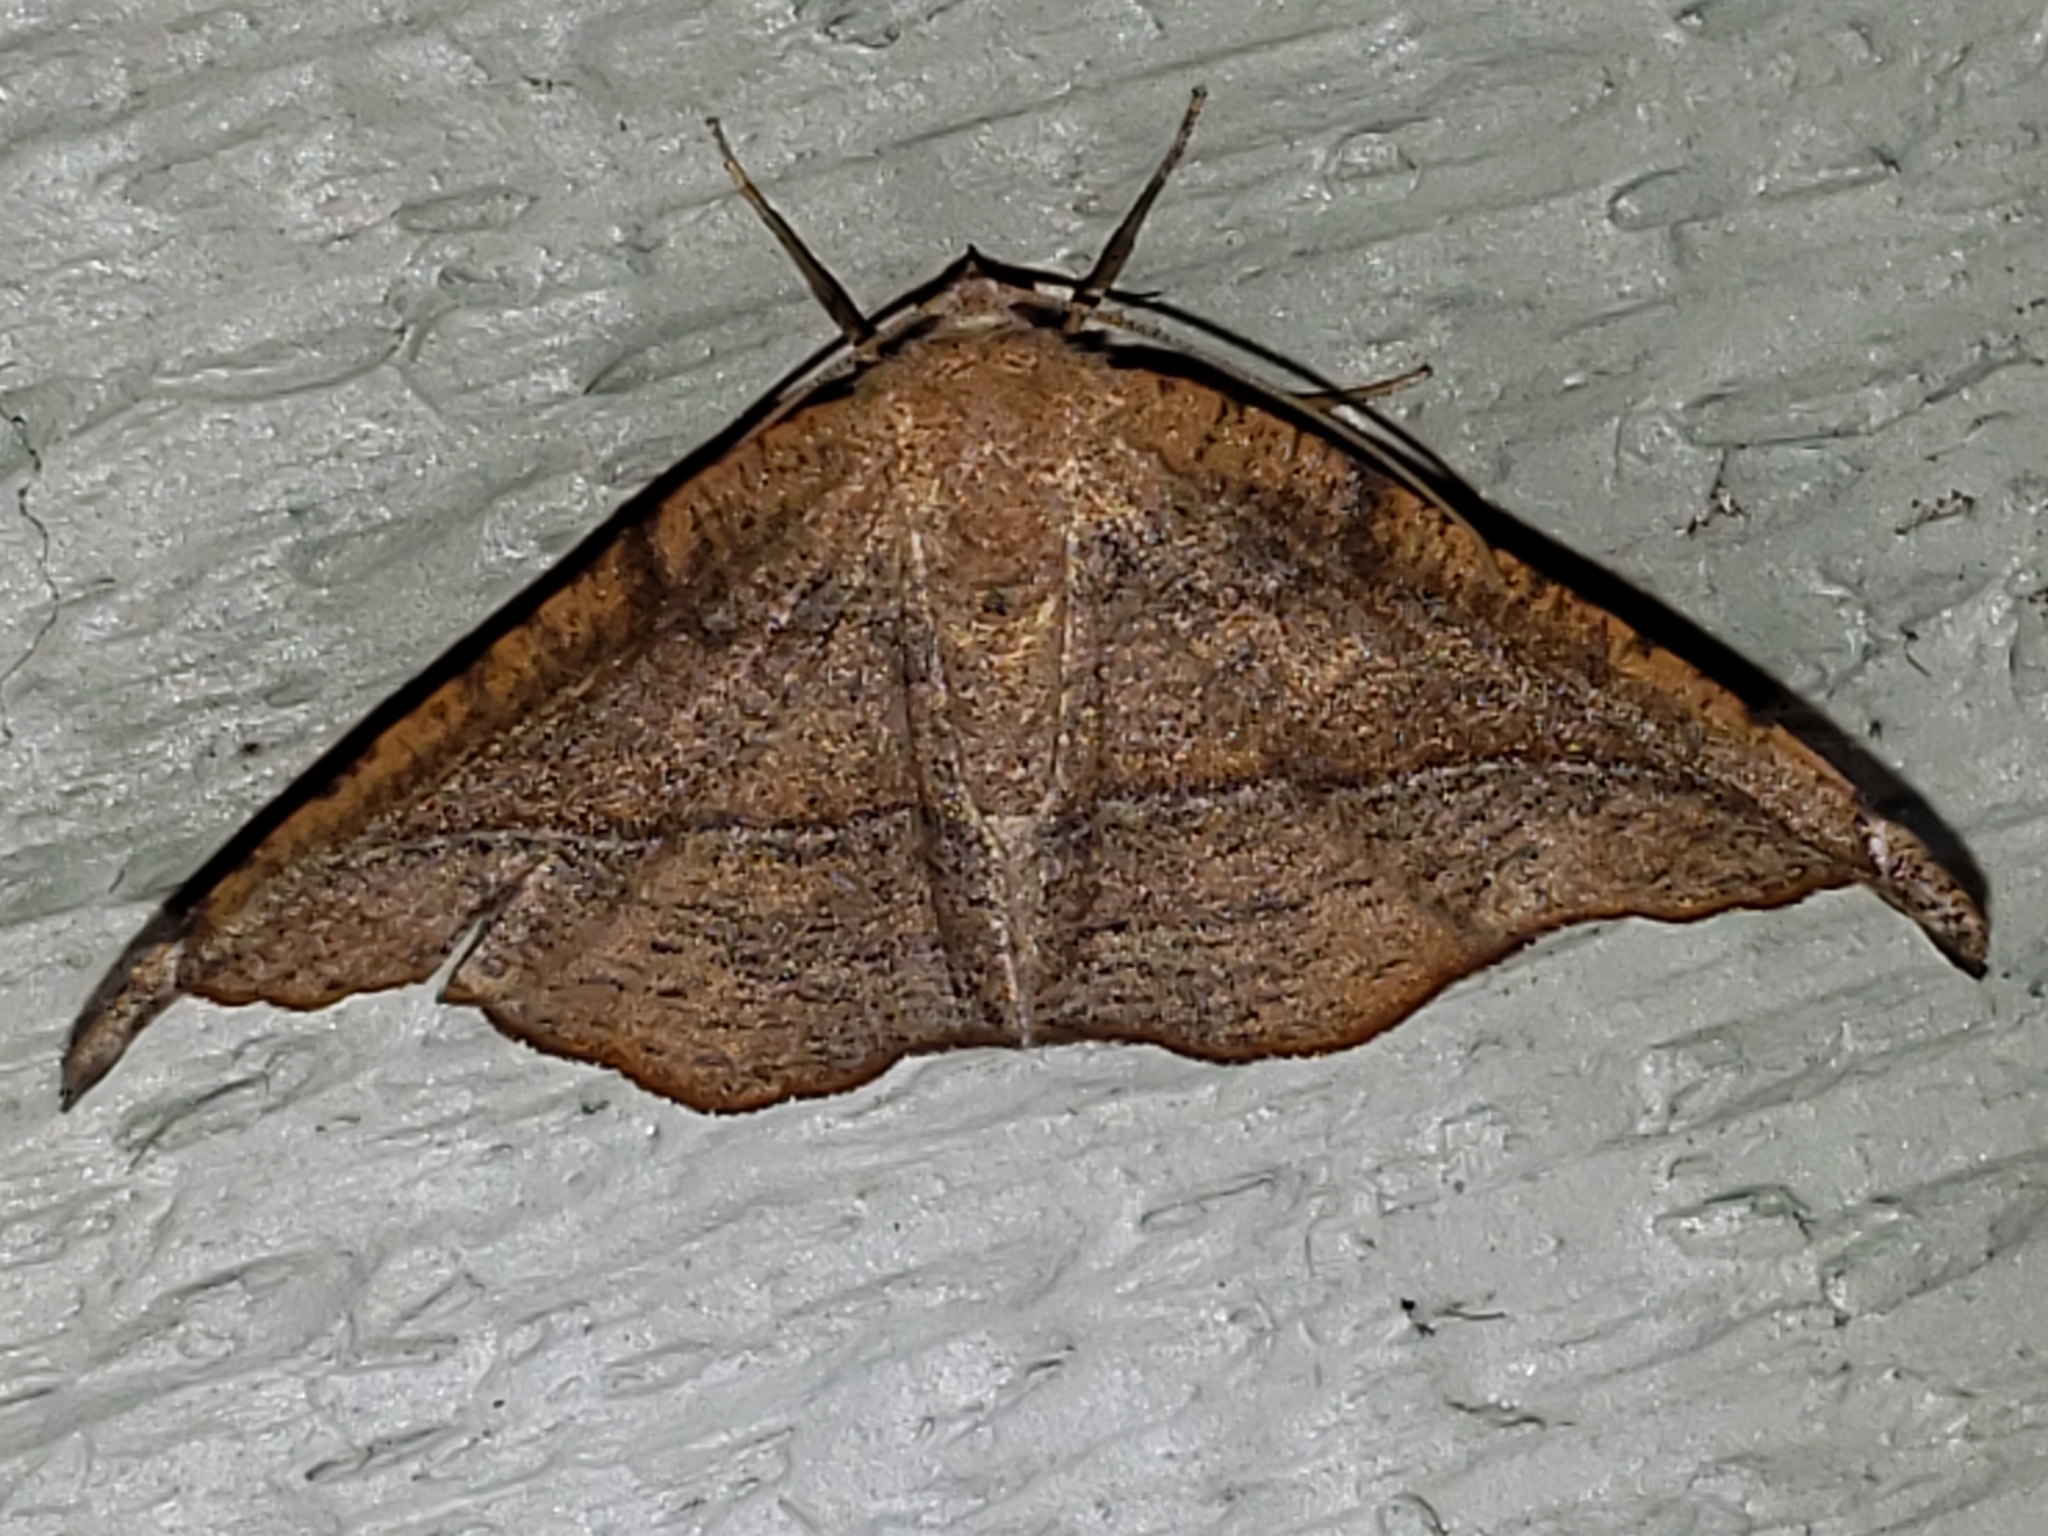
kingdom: Animalia
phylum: Arthropoda
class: Insecta
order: Lepidoptera
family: Geometridae
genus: Patalene
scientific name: Patalene olyzonaria
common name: Juniper geometer moth
